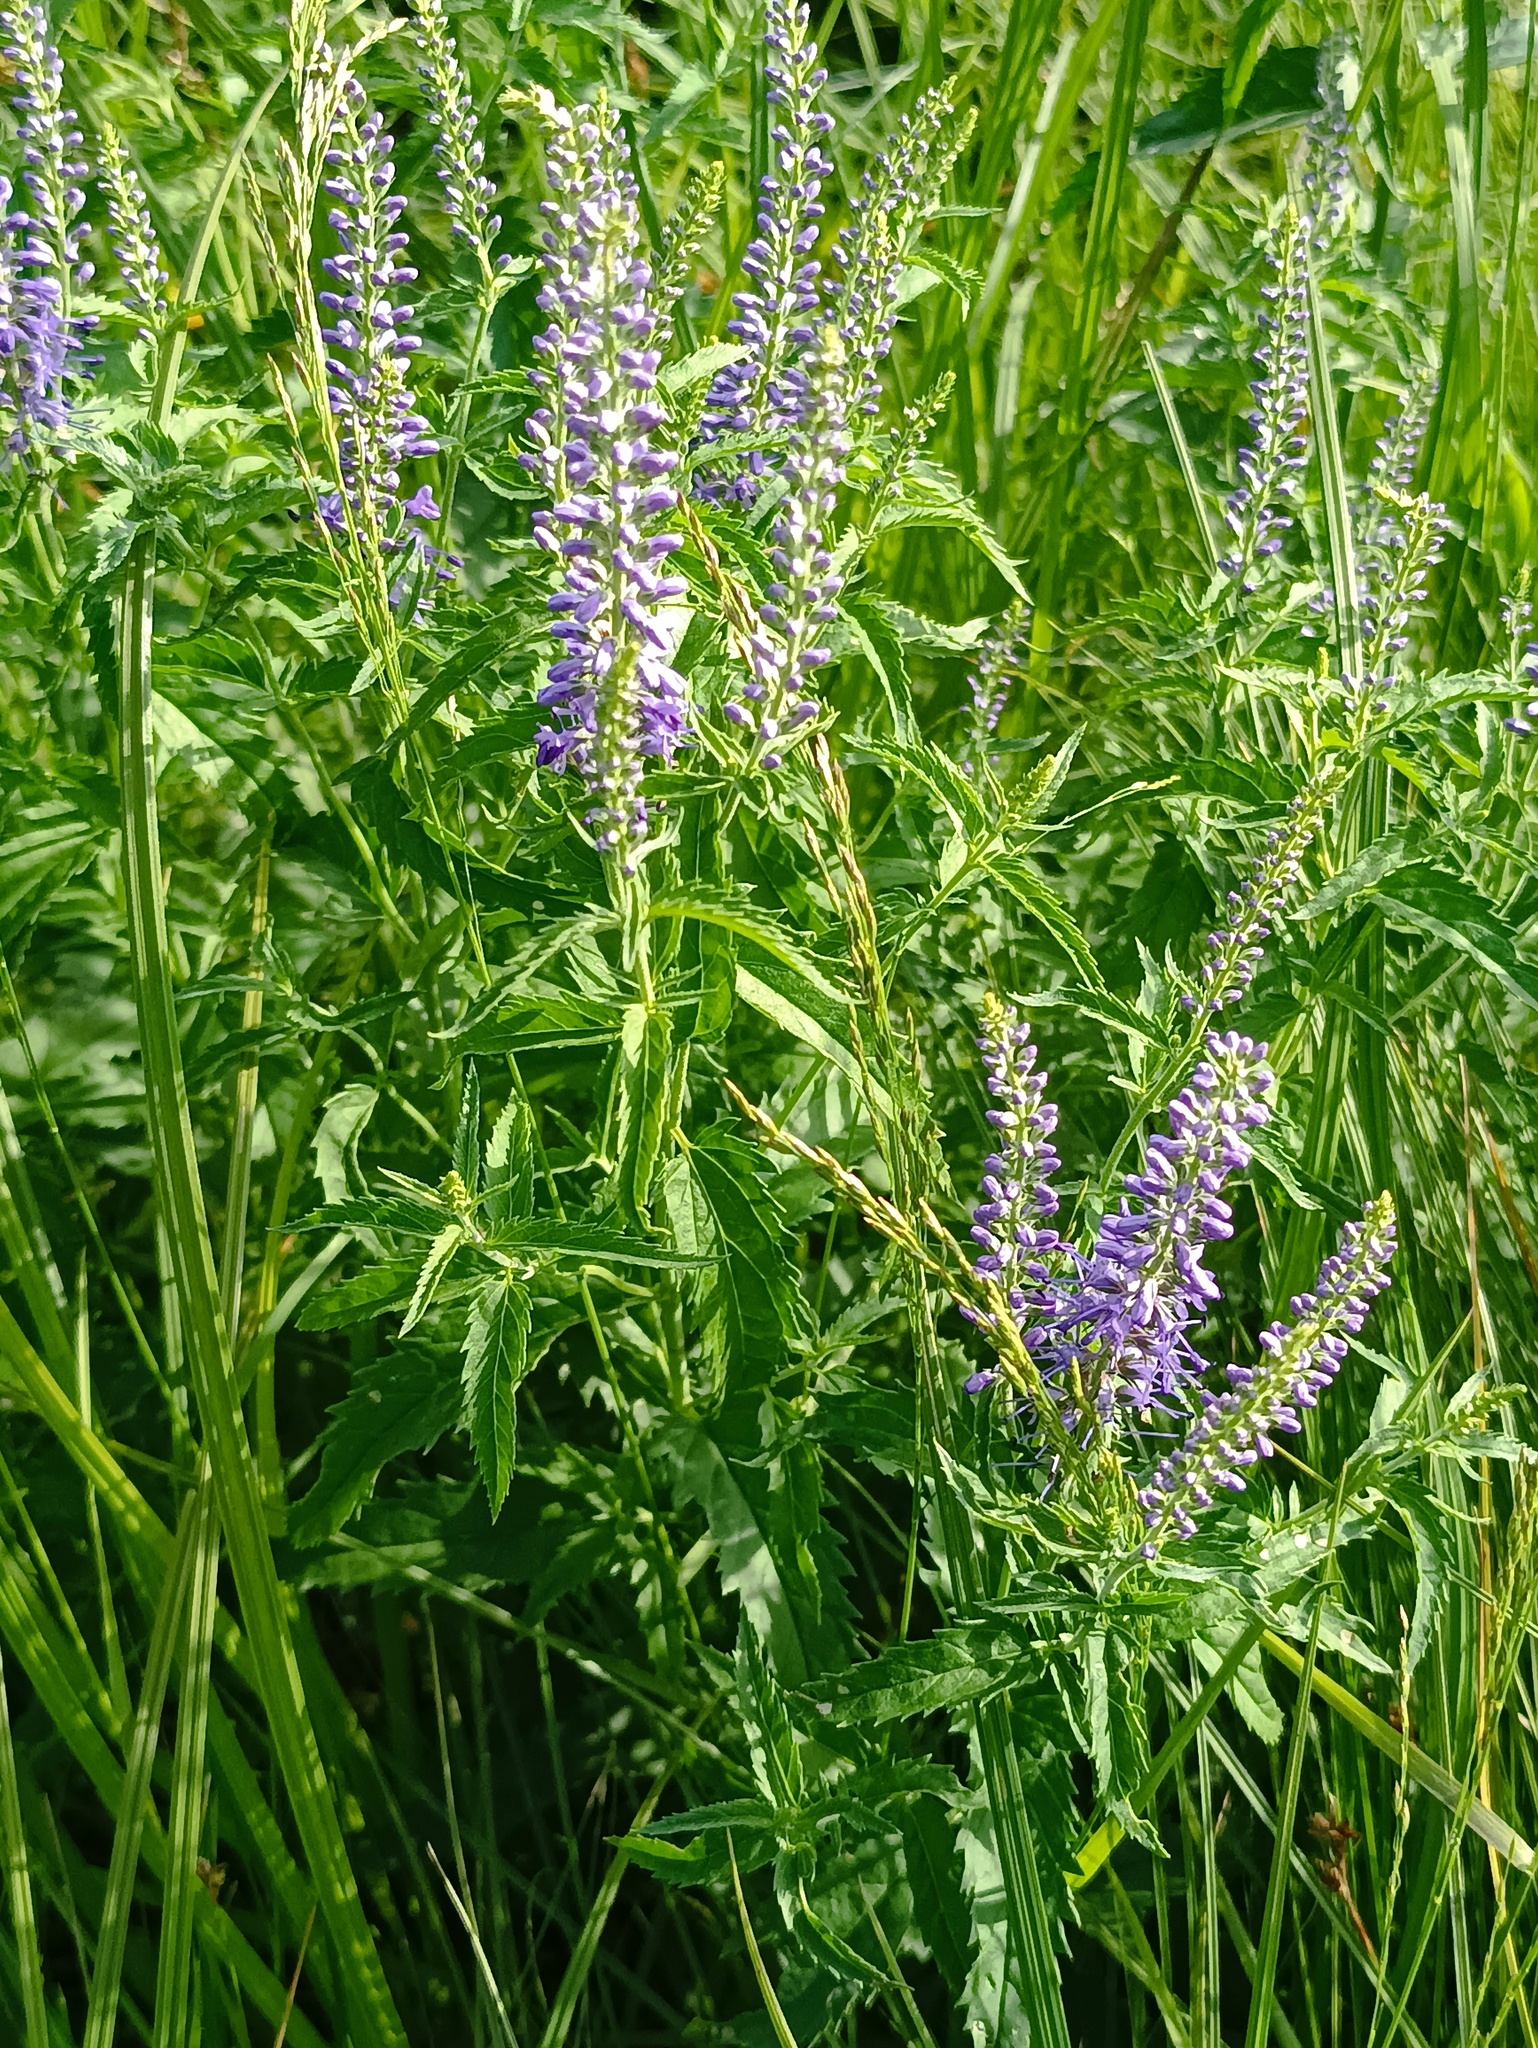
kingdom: Plantae
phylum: Tracheophyta
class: Magnoliopsida
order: Lamiales
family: Plantaginaceae
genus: Veronica
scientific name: Veronica longifolia
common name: Garden speedwell
